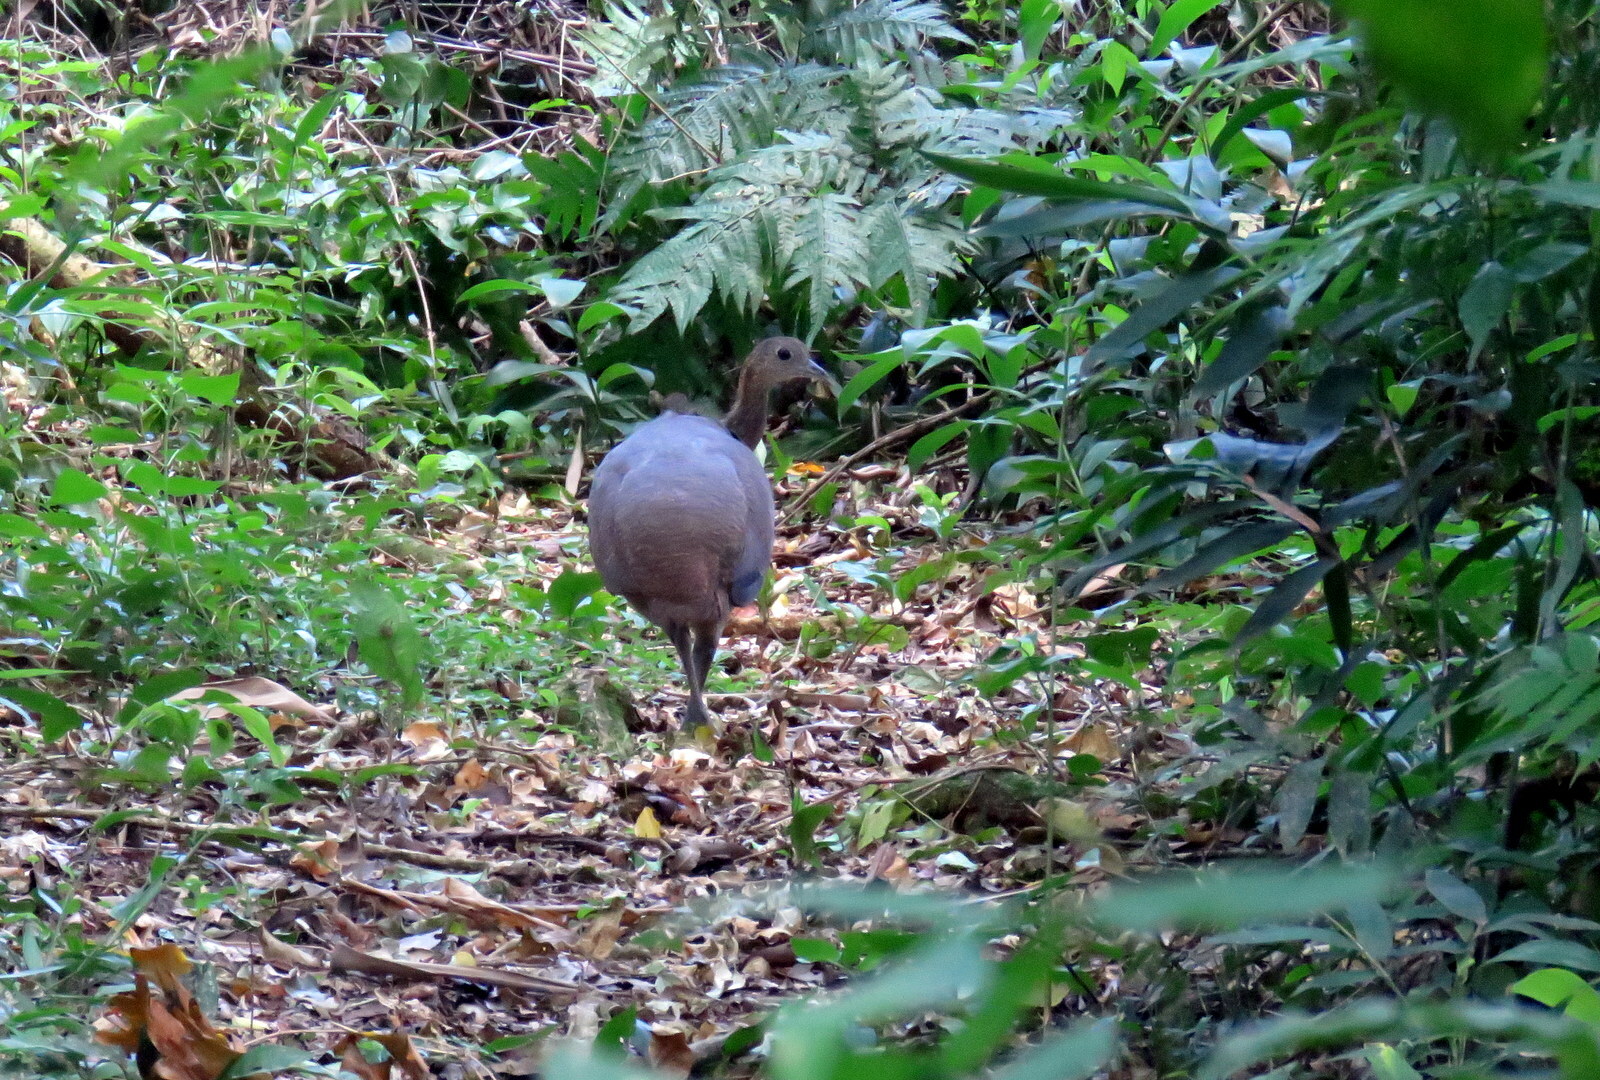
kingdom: Animalia
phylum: Chordata
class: Aves
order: Tinamiformes
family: Tinamidae
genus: Tinamus
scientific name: Tinamus solitarius
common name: Solitary tinamou
